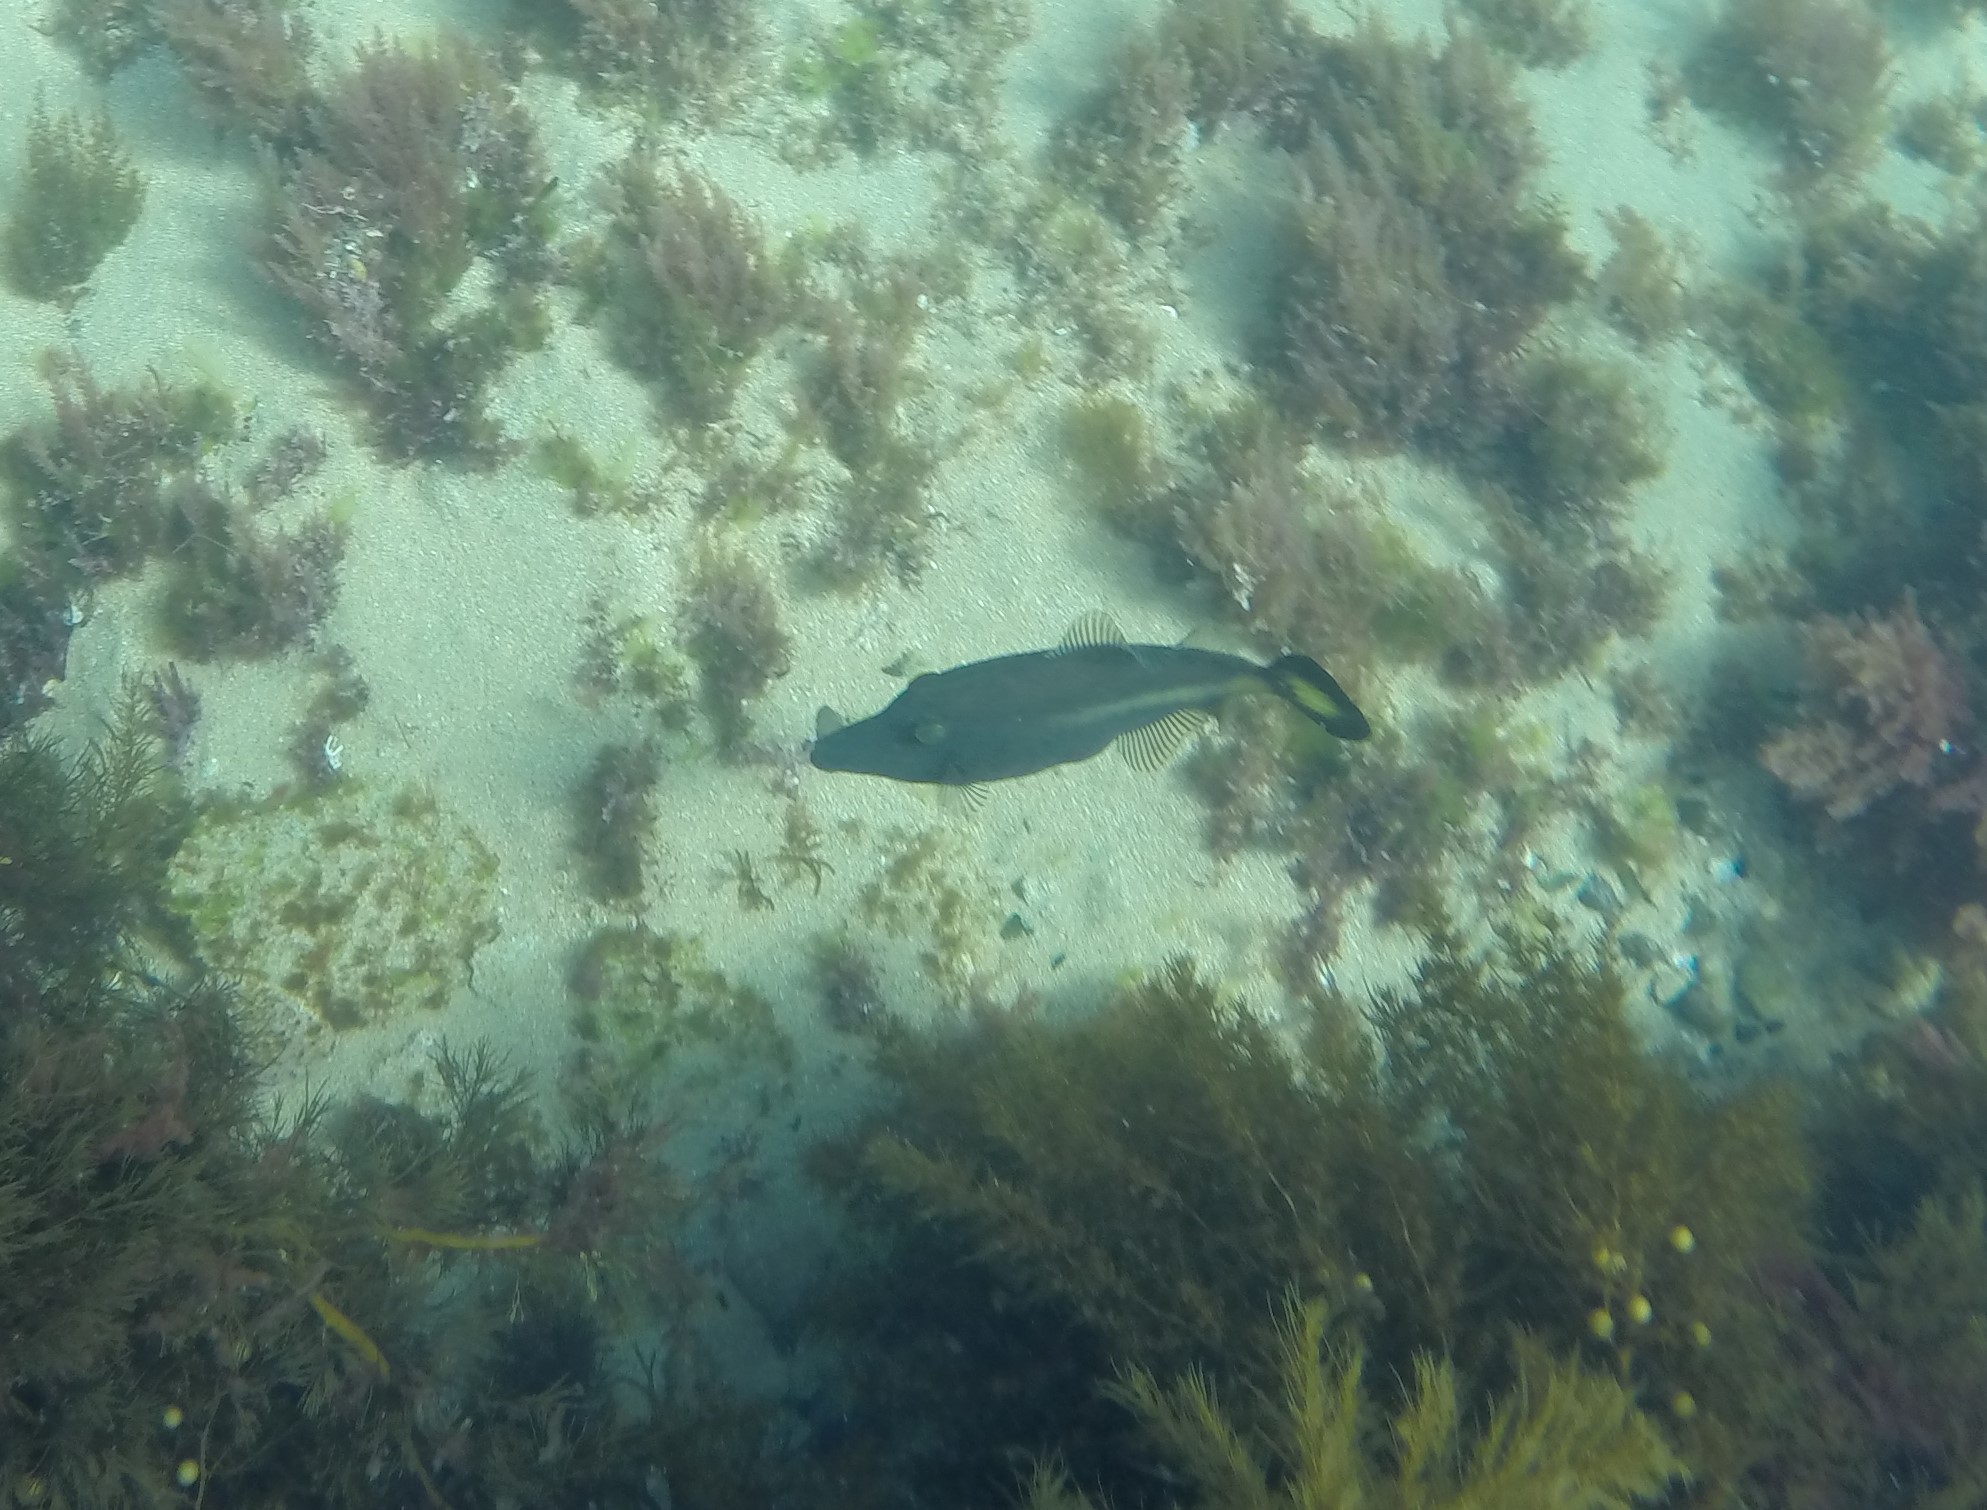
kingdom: Animalia
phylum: Chordata
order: Tetraodontiformes
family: Monacanthidae
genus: Meuschenia
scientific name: Meuschenia flavolineata
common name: Yellowstriped leatherjacket
